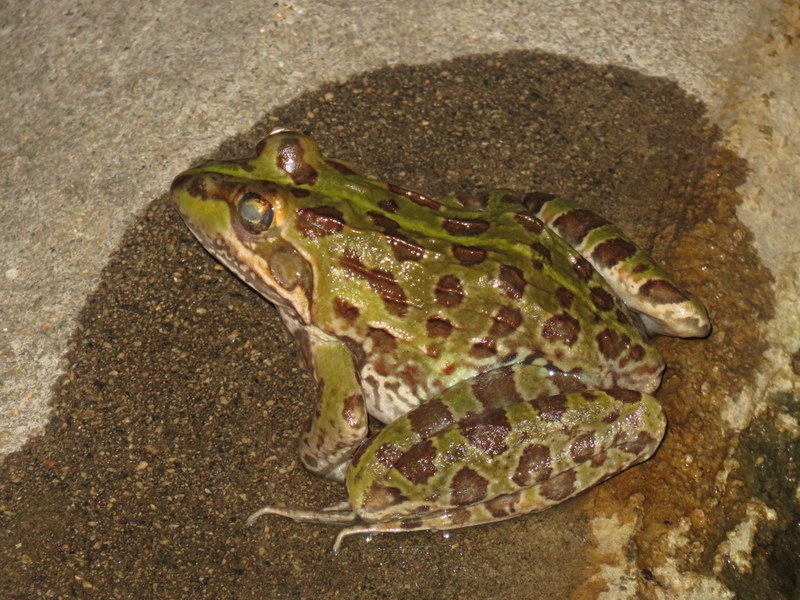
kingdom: Animalia
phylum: Chordata
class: Amphibia
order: Anura
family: Pyxicephalidae
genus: Amietia
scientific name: Amietia delalandii
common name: Delalande's river frog
